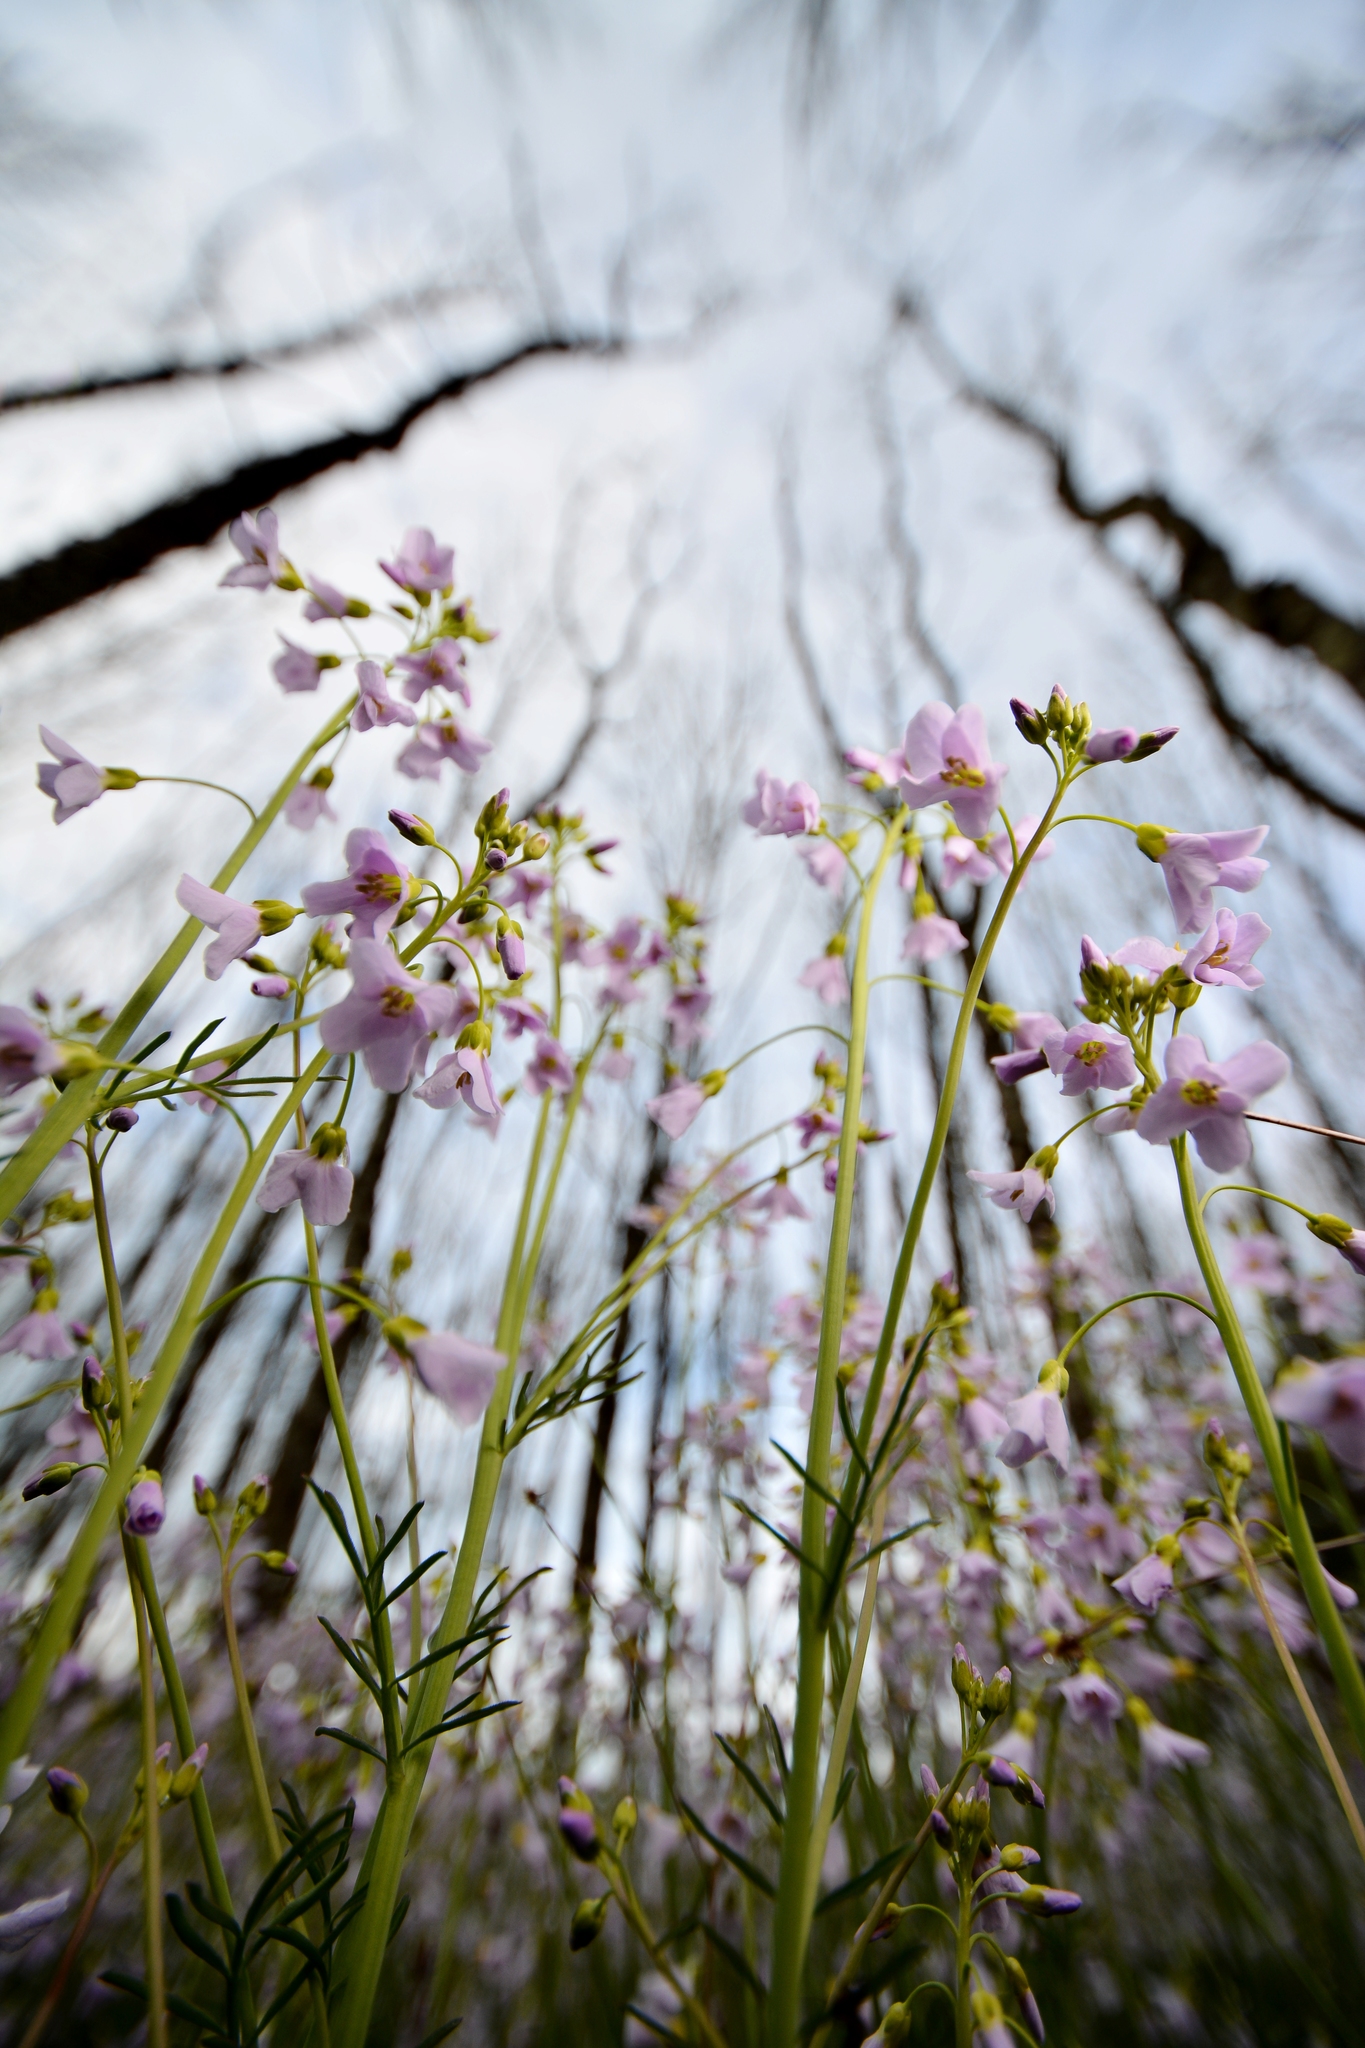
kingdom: Plantae
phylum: Tracheophyta
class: Magnoliopsida
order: Brassicales
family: Brassicaceae
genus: Cardamine
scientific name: Cardamine pratensis
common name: Cuckoo flower
